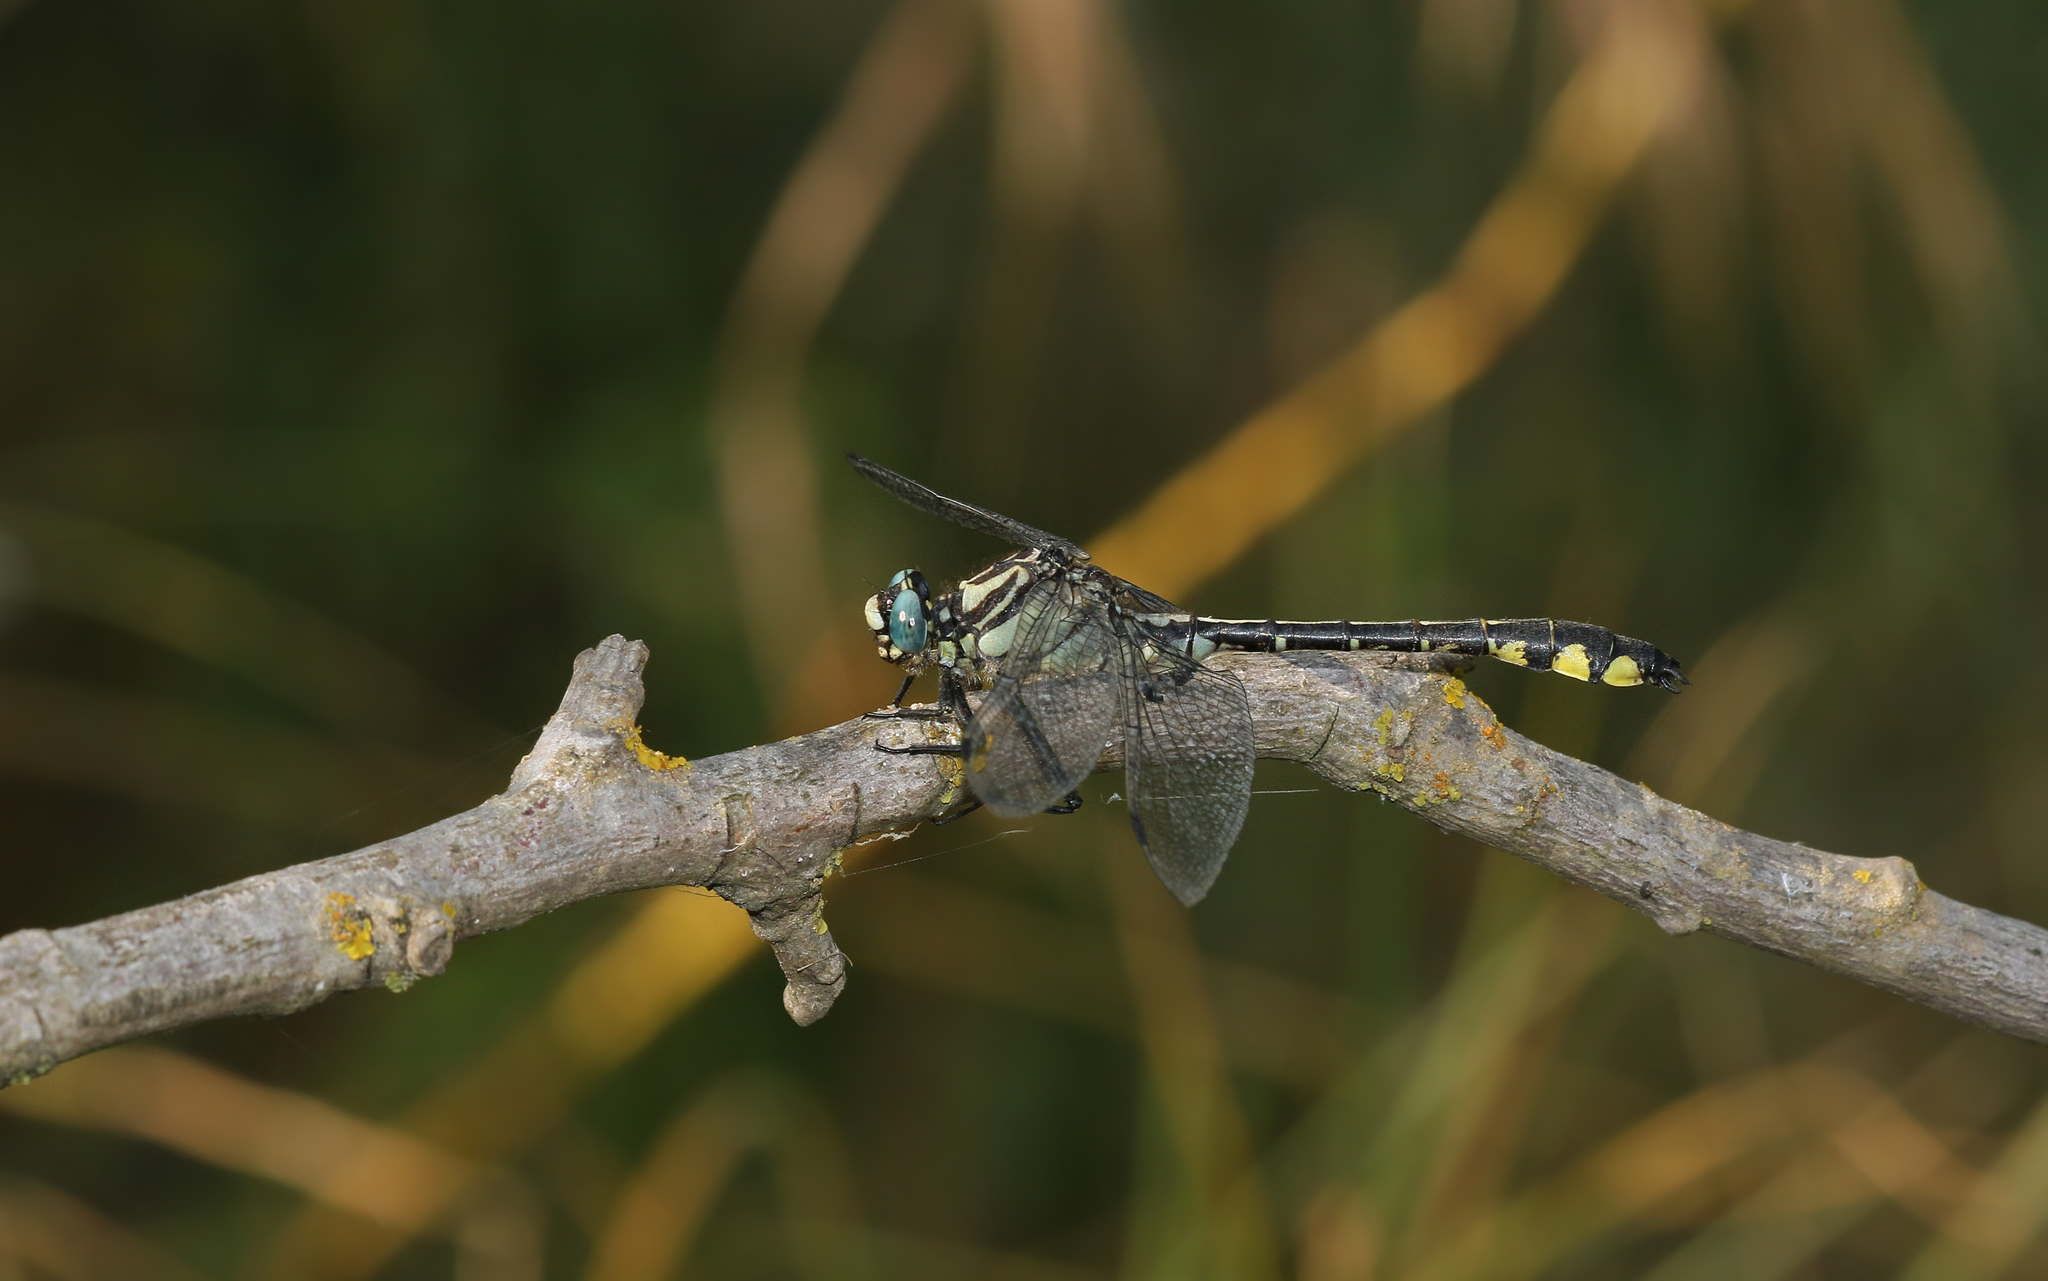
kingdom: Animalia
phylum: Arthropoda
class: Insecta
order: Odonata
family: Gomphidae
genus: Gomphus
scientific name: Gomphus schneiderii
